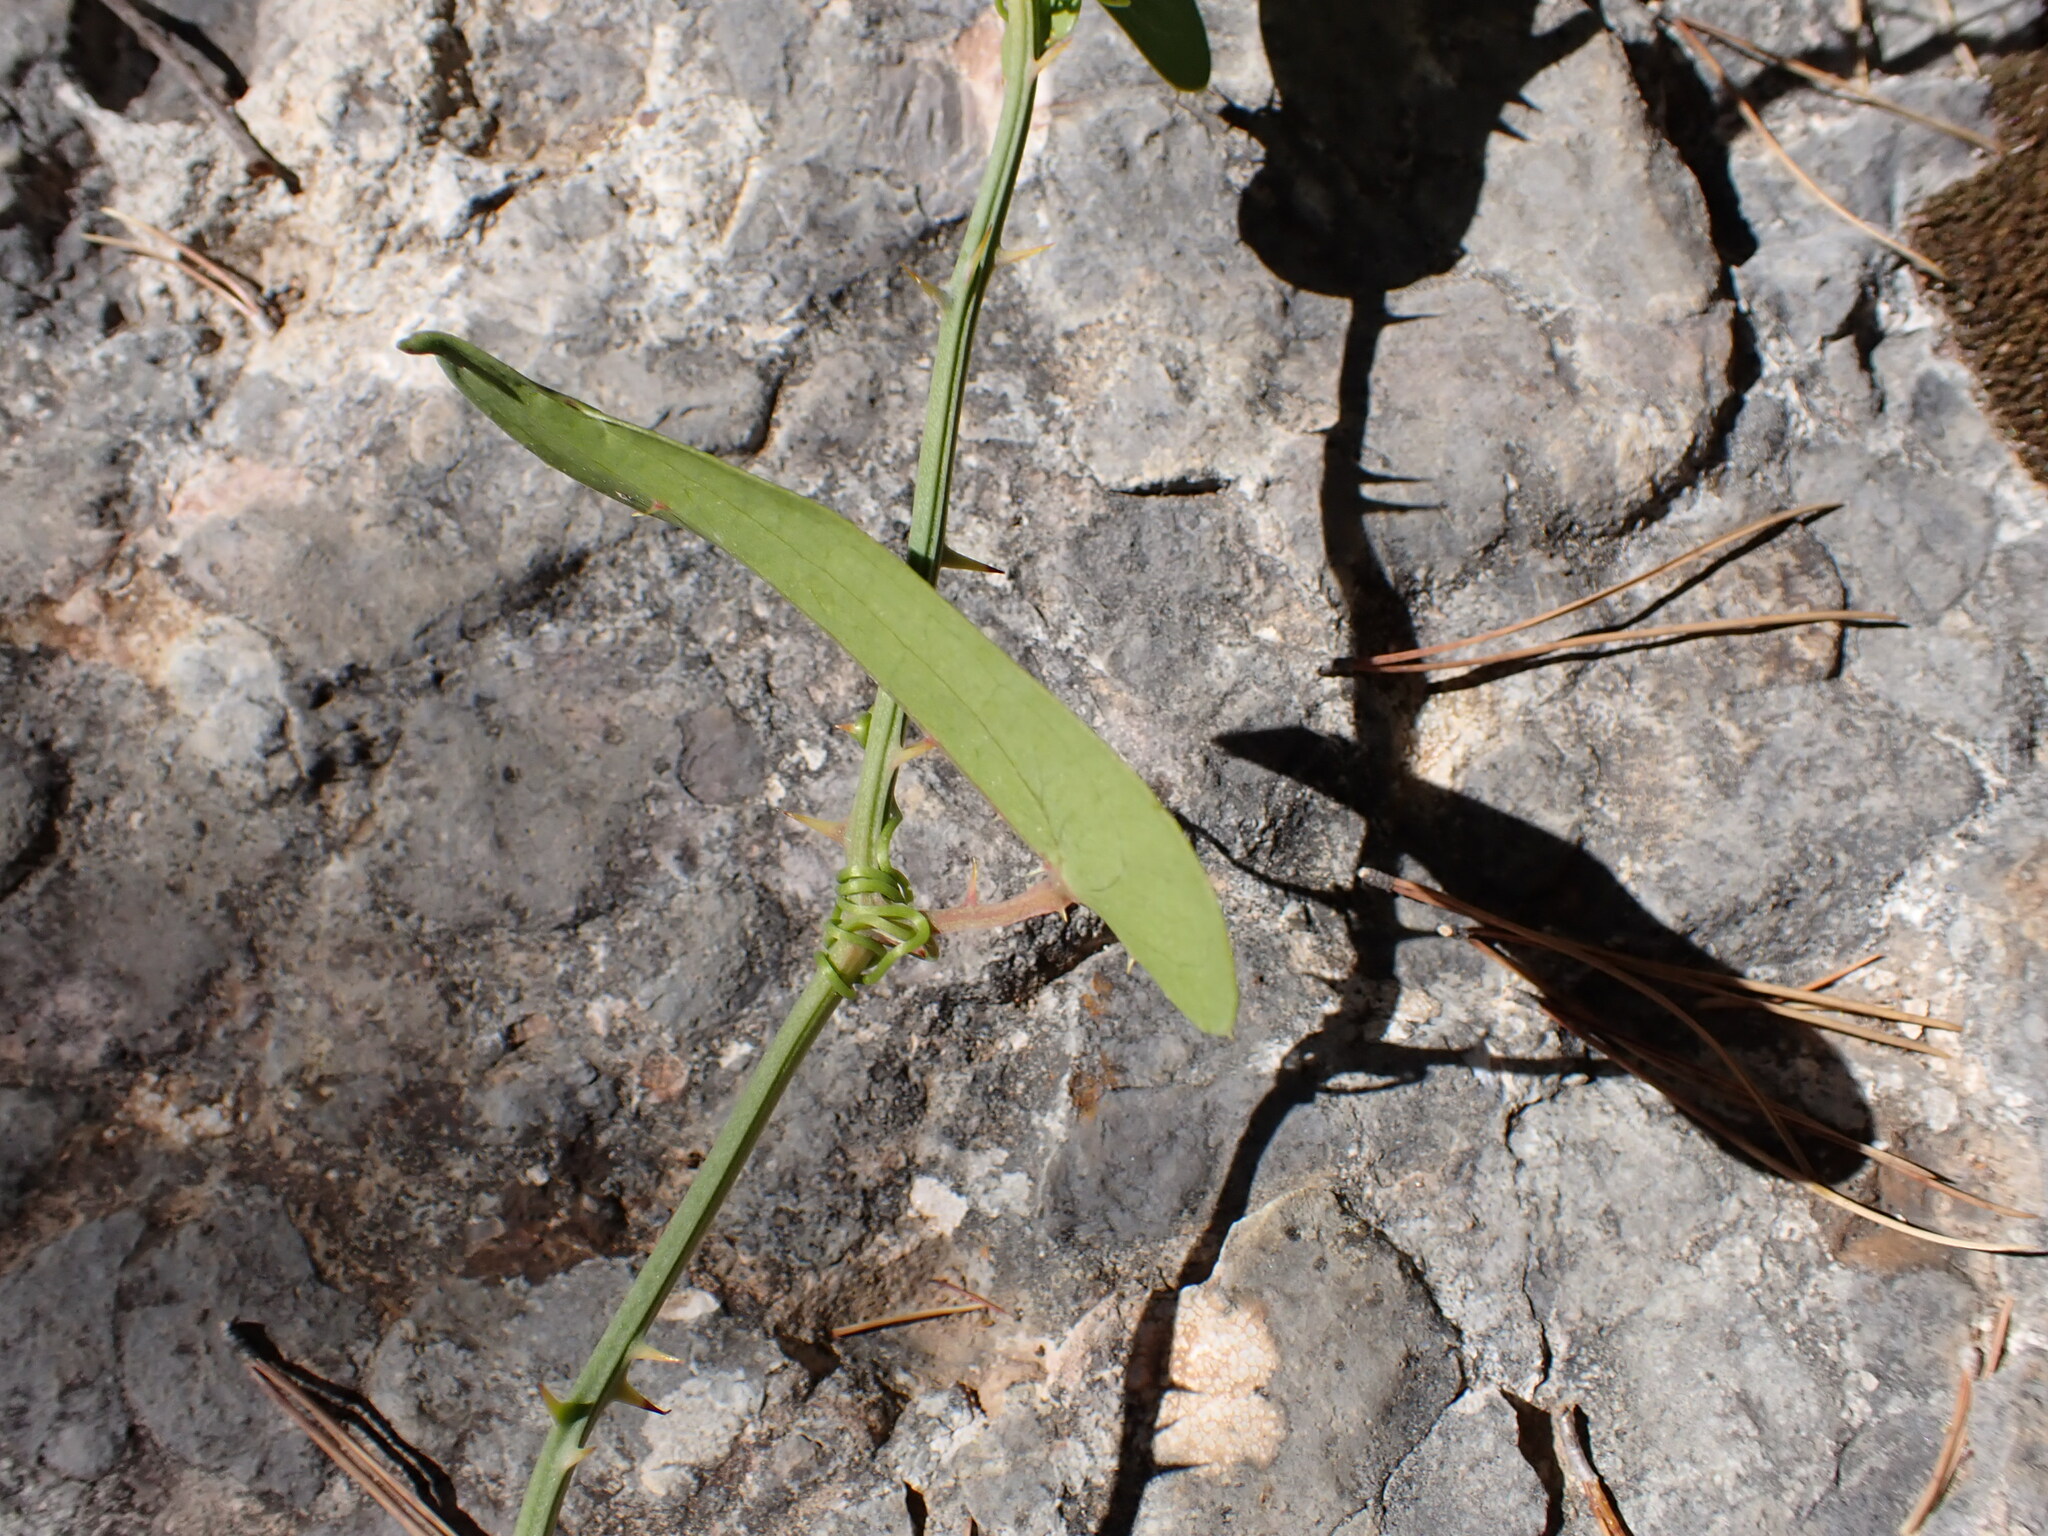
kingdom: Plantae
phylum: Tracheophyta
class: Liliopsida
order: Liliales
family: Smilacaceae
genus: Smilax
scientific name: Smilax aspera
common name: Common smilax
